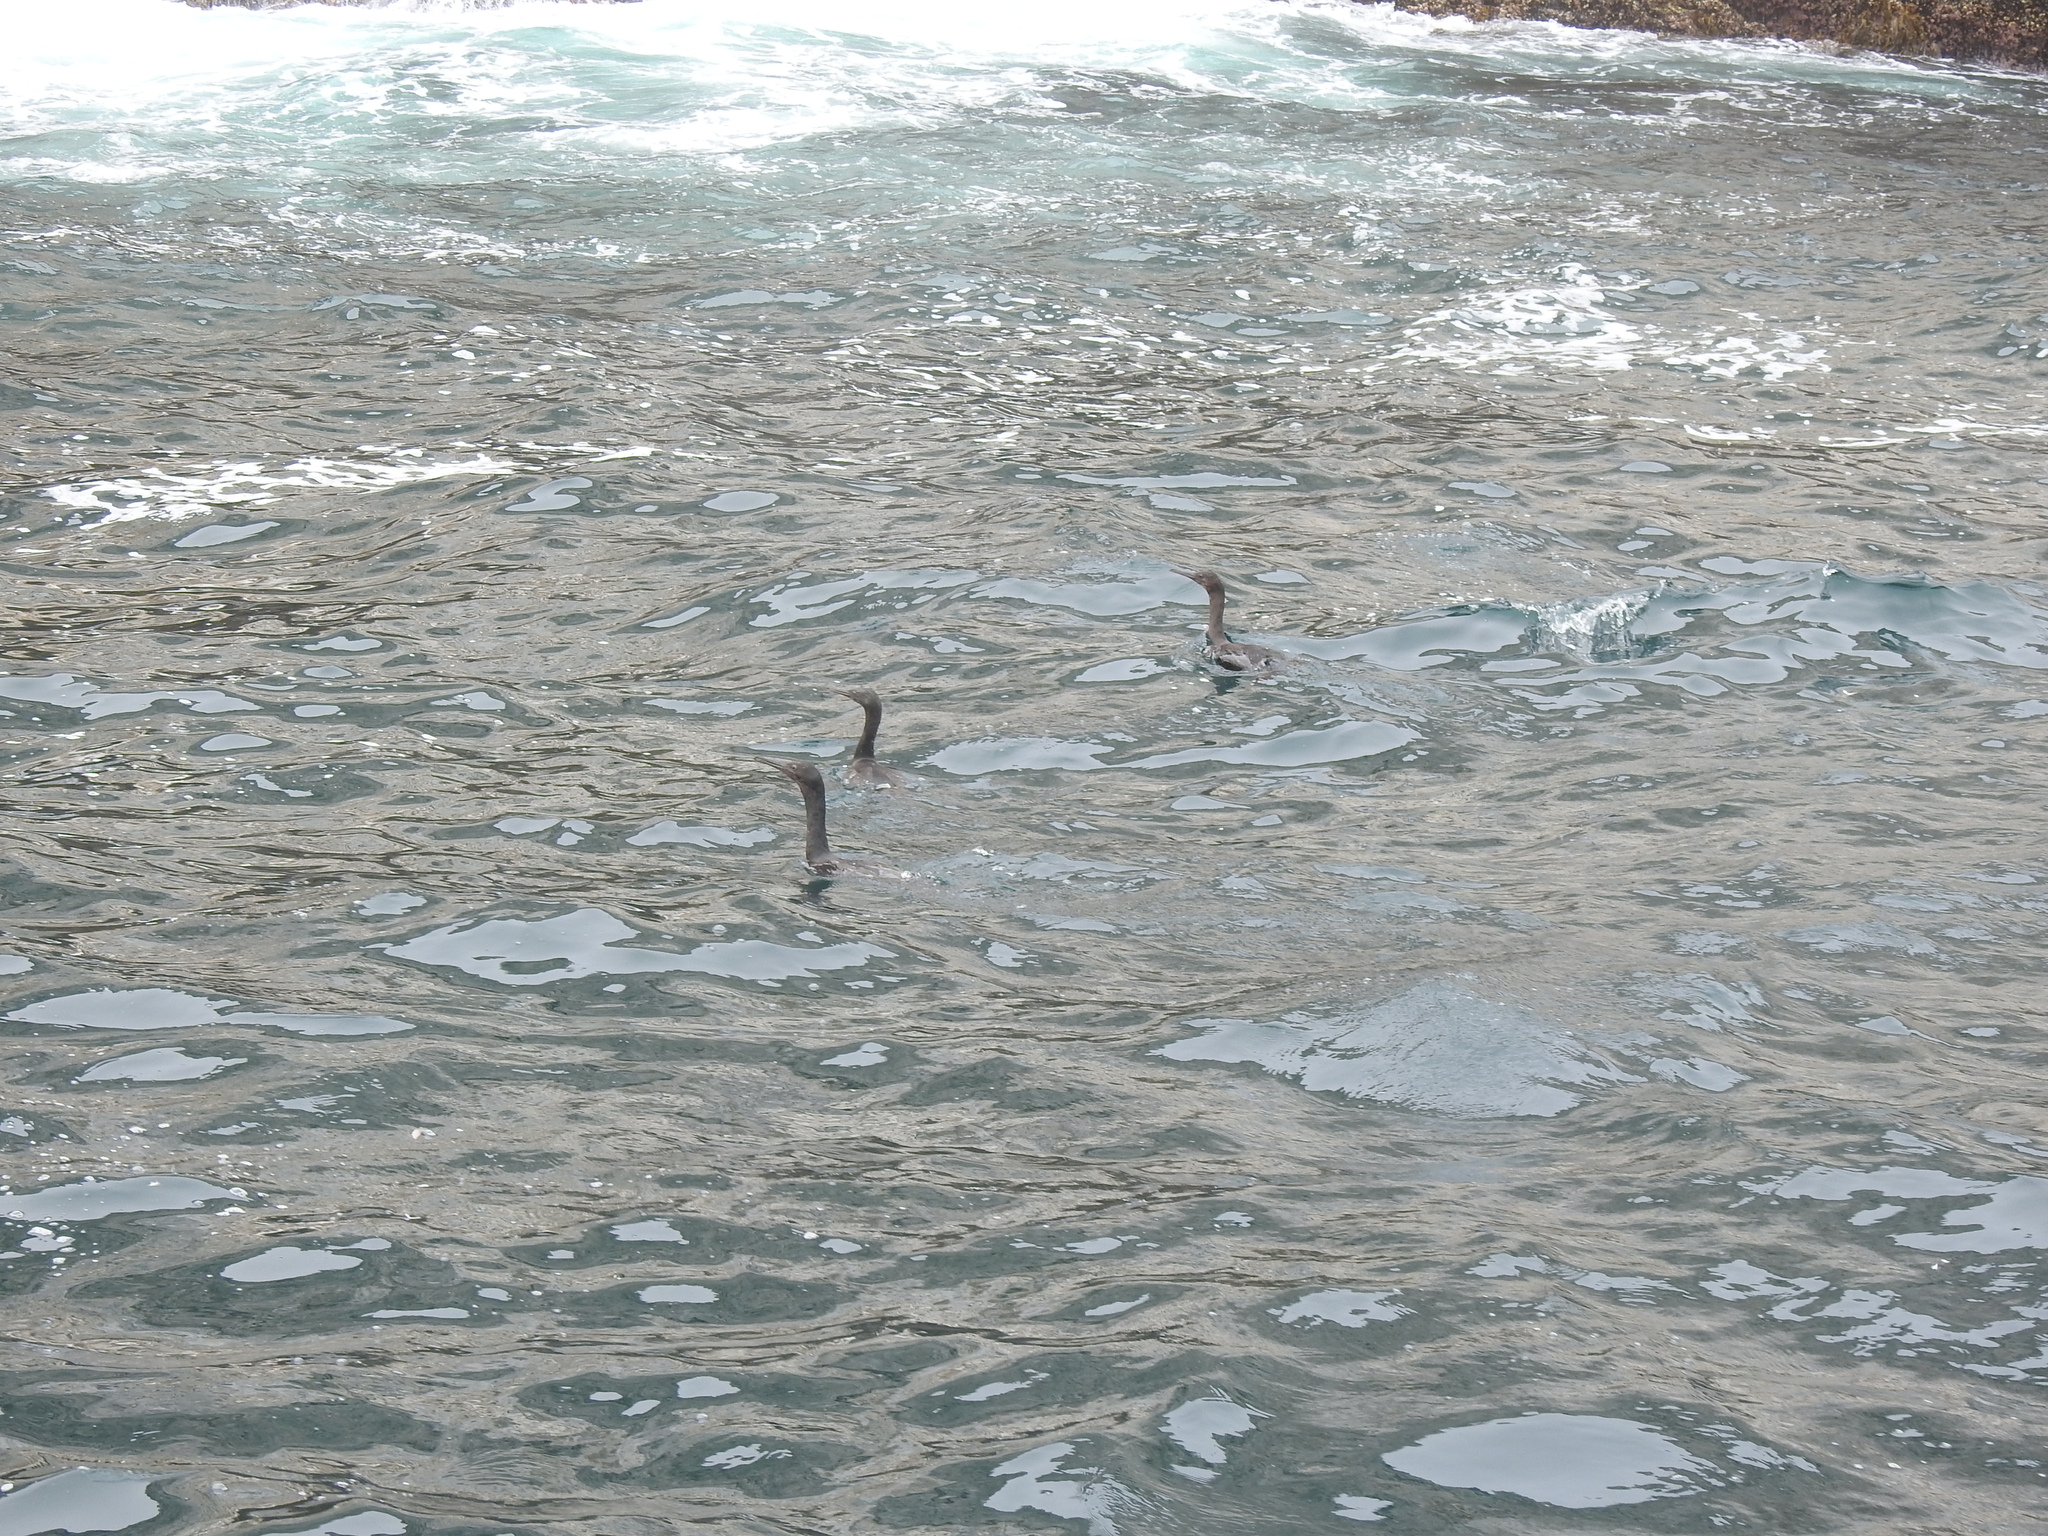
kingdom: Animalia
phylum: Chordata
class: Aves
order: Suliformes
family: Phalacrocoracidae
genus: Urile
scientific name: Urile penicillatus
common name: Brandt's cormorant
